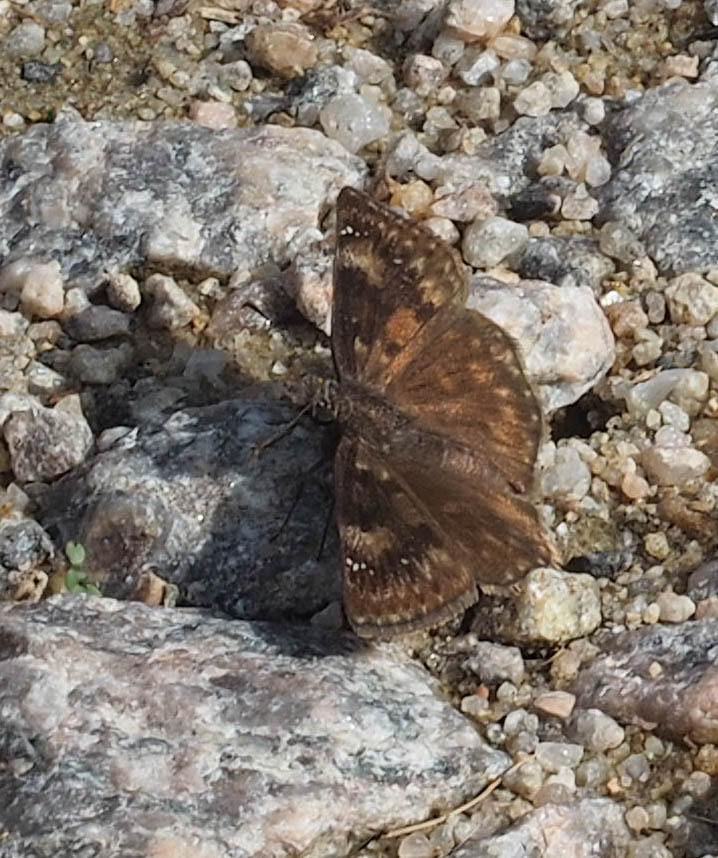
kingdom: Animalia
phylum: Arthropoda
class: Insecta
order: Lepidoptera
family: Hesperiidae
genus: Erynnis
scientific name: Erynnis baptisiae
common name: Wild indigo duskywing
